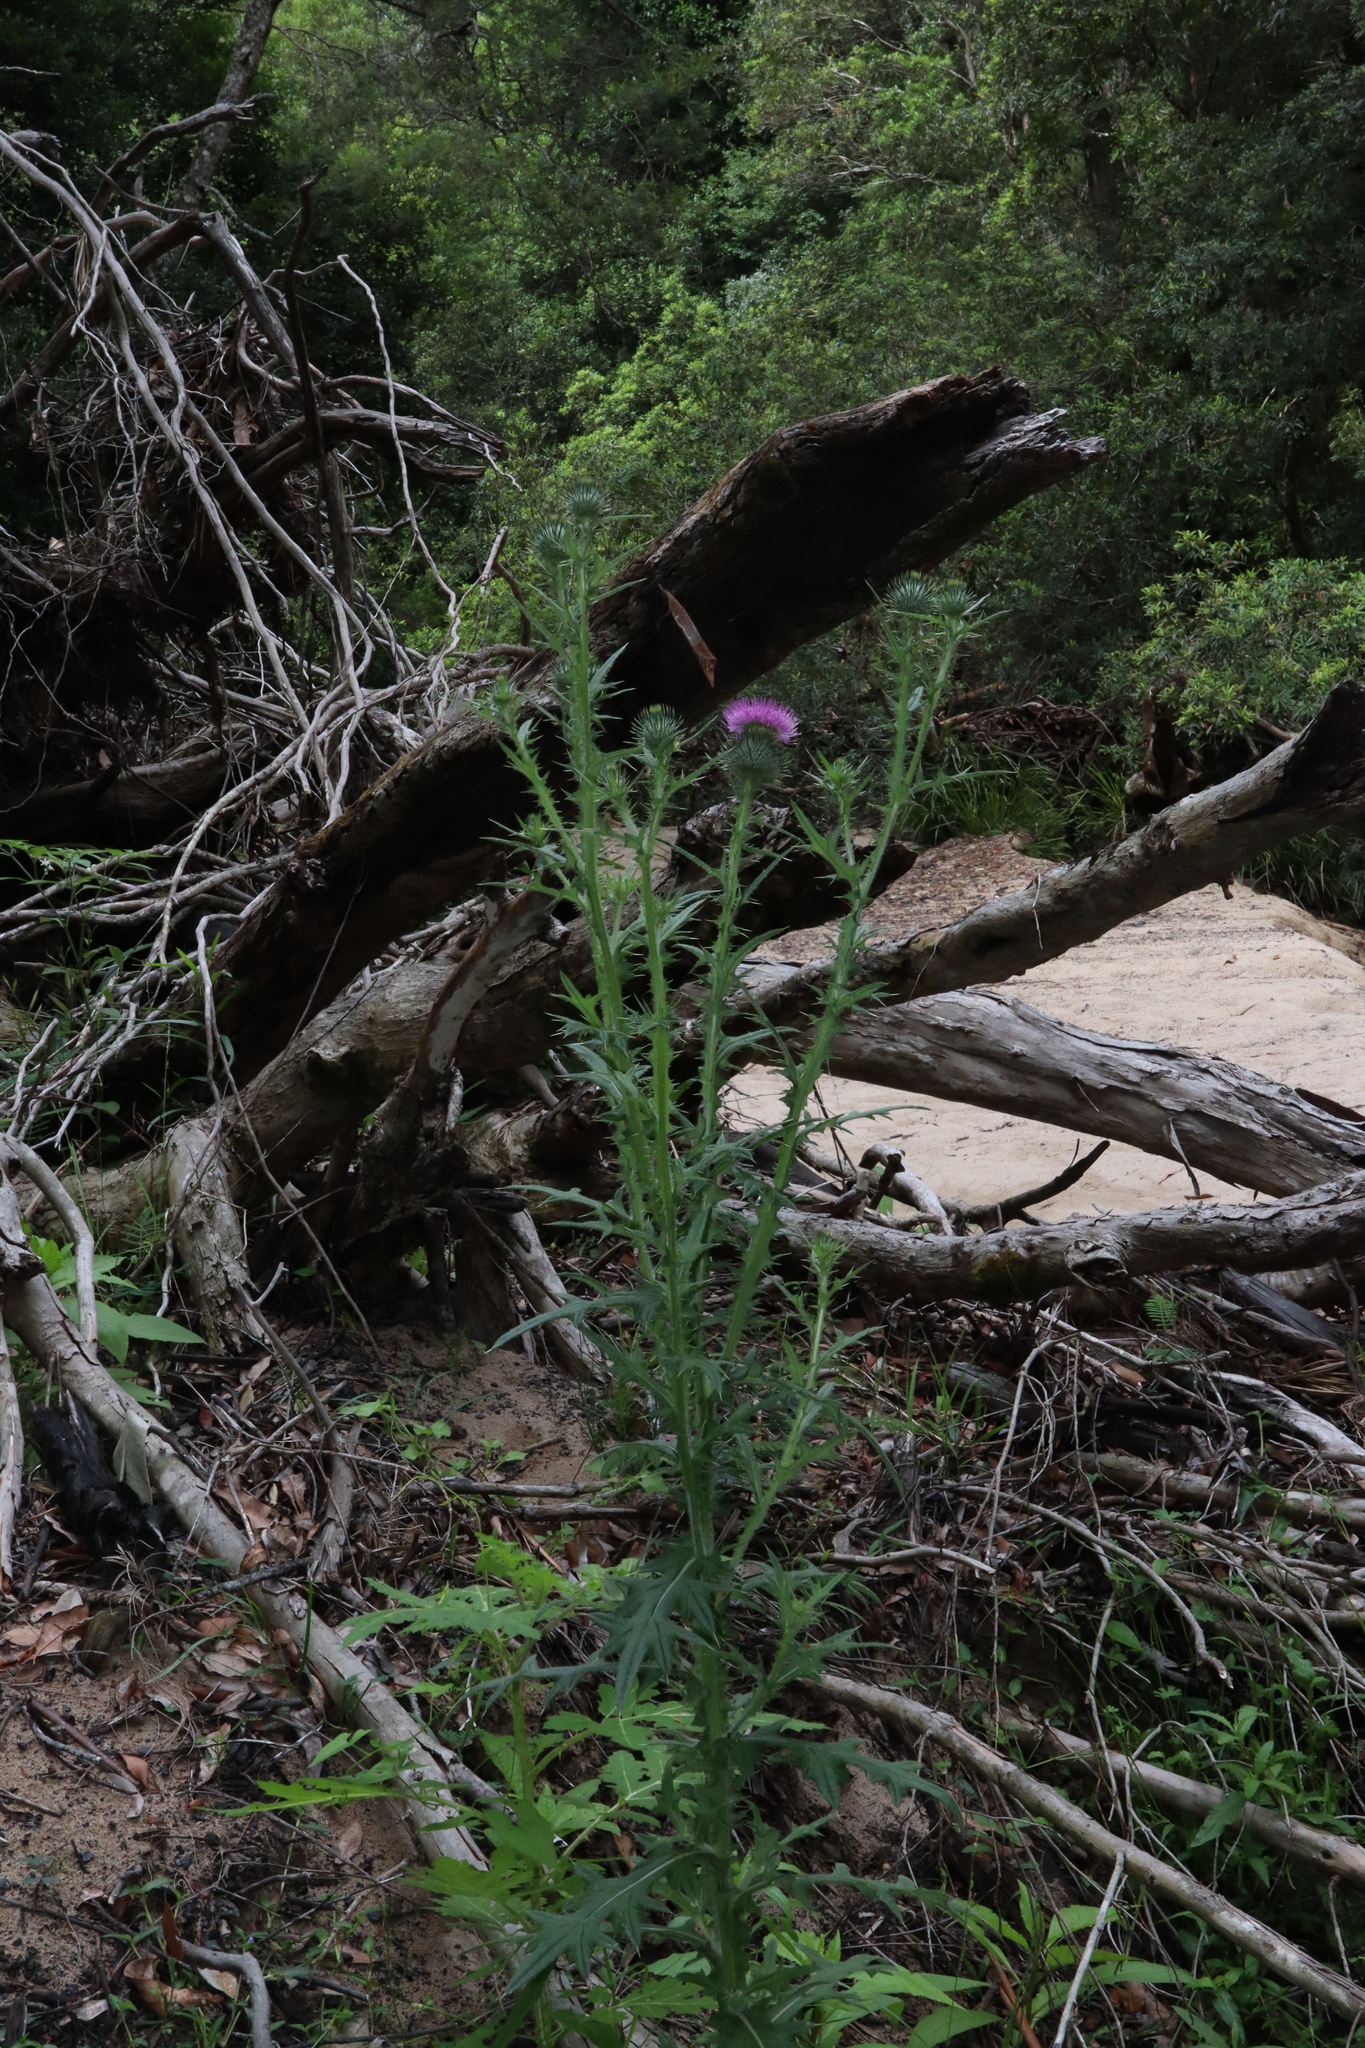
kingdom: Plantae
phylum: Tracheophyta
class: Magnoliopsida
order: Asterales
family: Asteraceae
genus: Cirsium
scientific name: Cirsium vulgare
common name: Bull thistle
